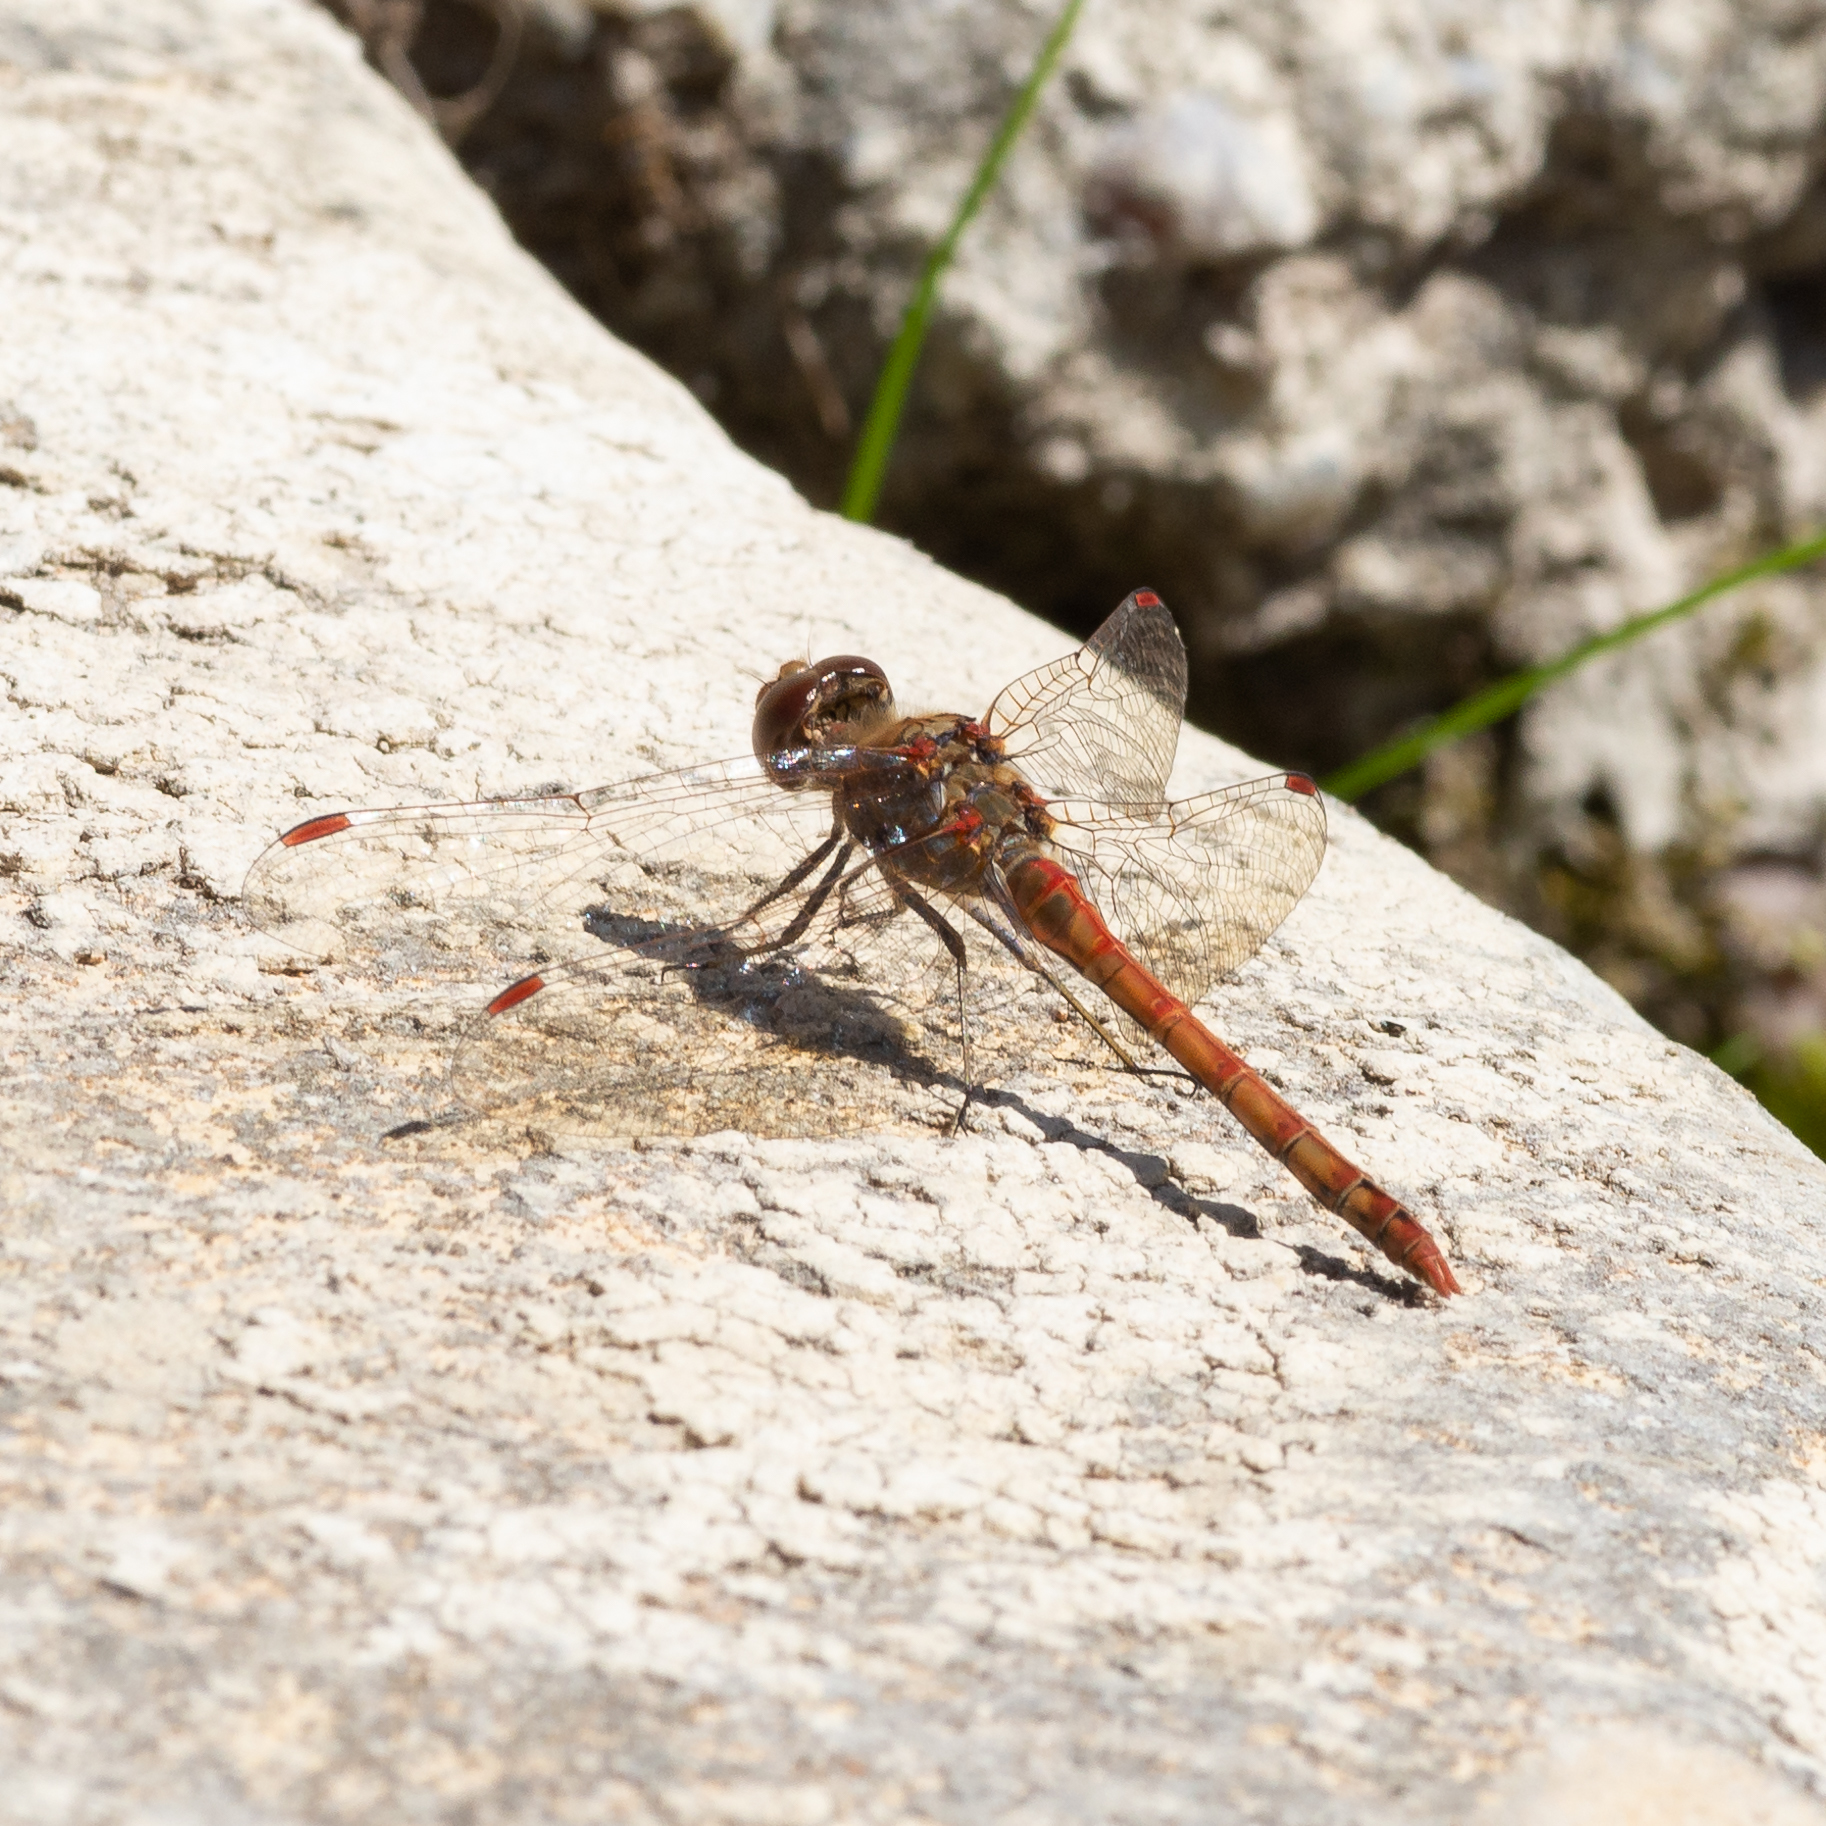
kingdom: Animalia
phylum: Arthropoda
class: Insecta
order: Odonata
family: Libellulidae
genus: Sympetrum
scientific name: Sympetrum striolatum
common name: Common darter
